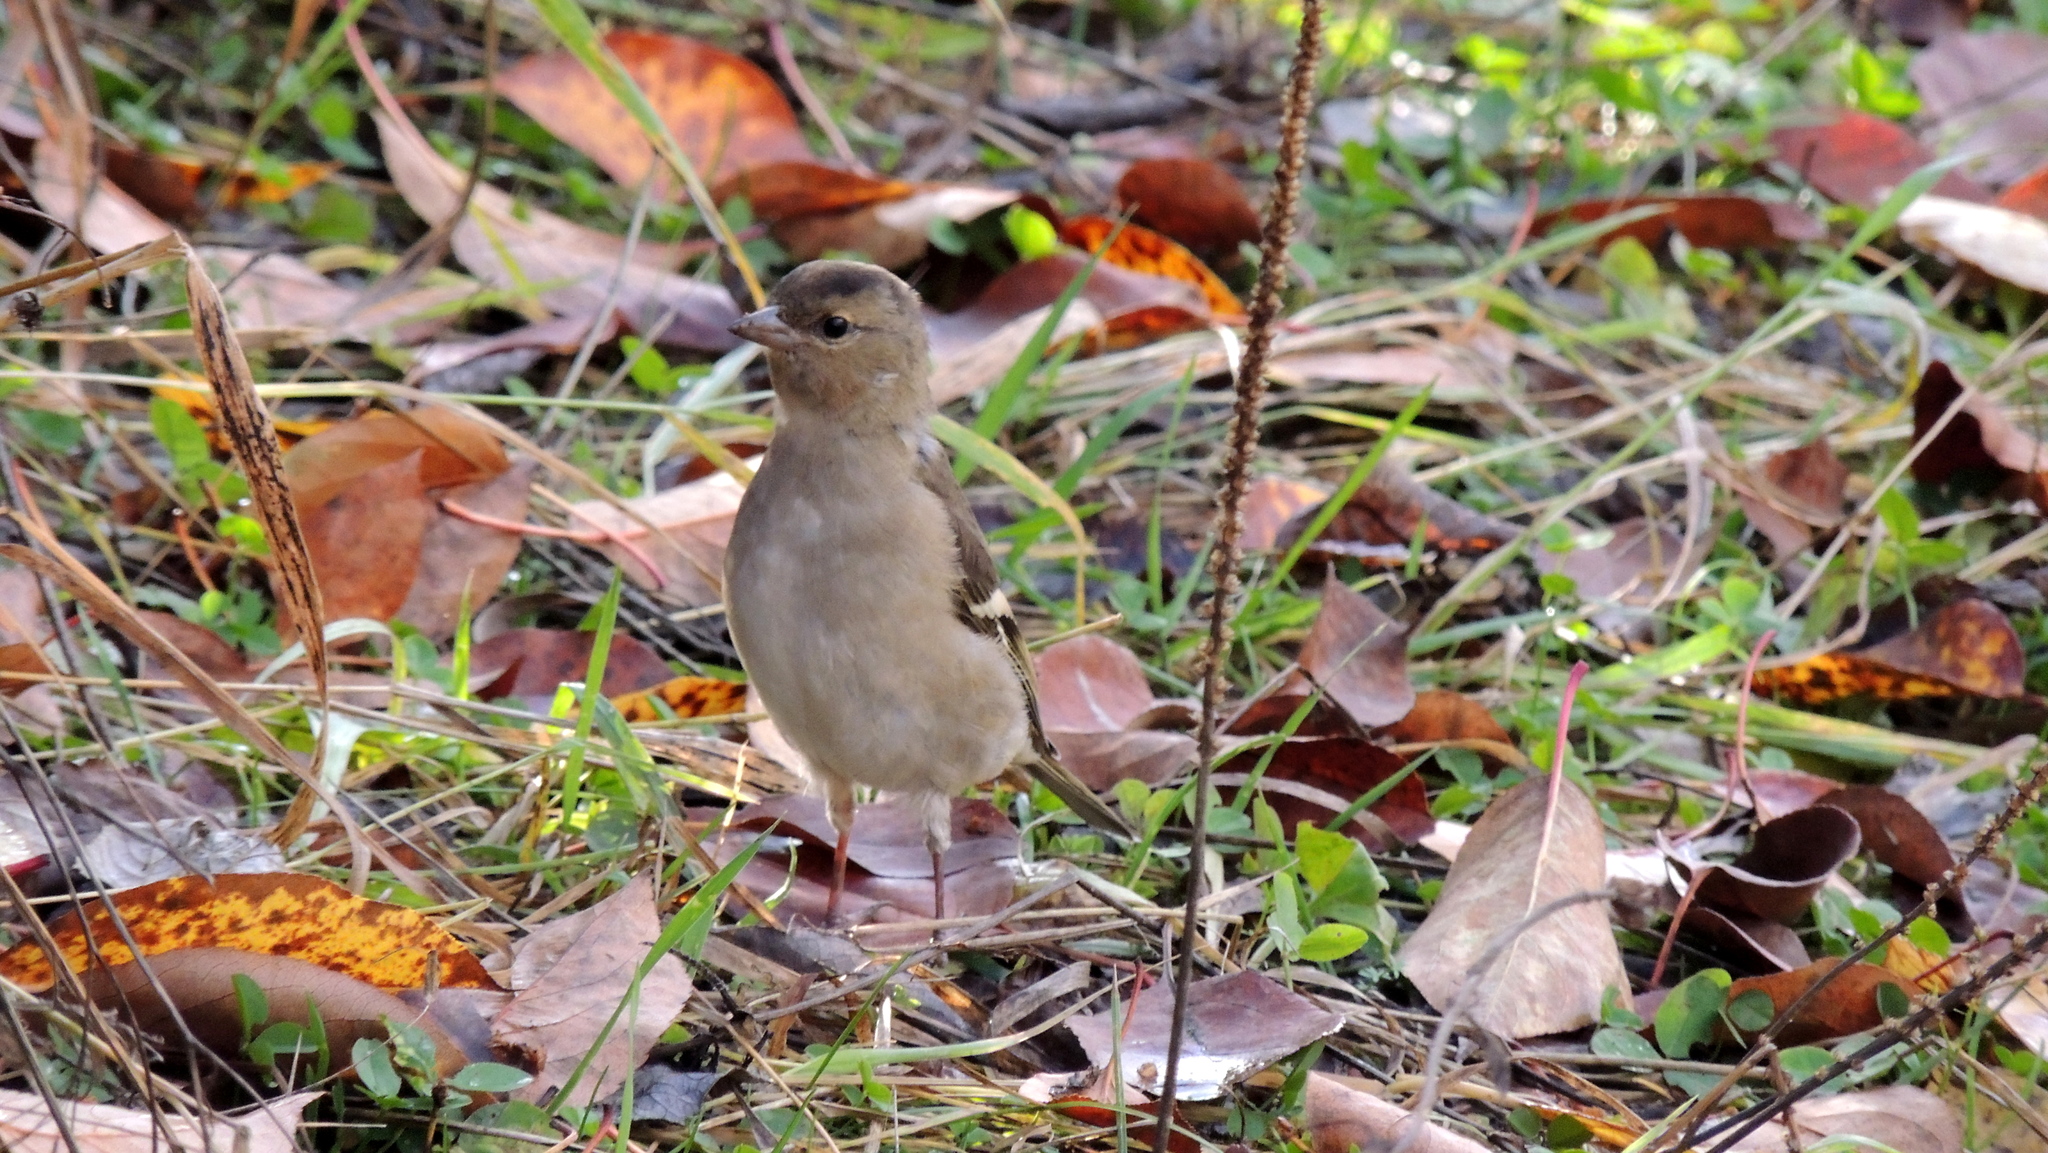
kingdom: Animalia
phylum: Chordata
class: Aves
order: Passeriformes
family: Fringillidae
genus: Fringilla
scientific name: Fringilla coelebs
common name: Common chaffinch
